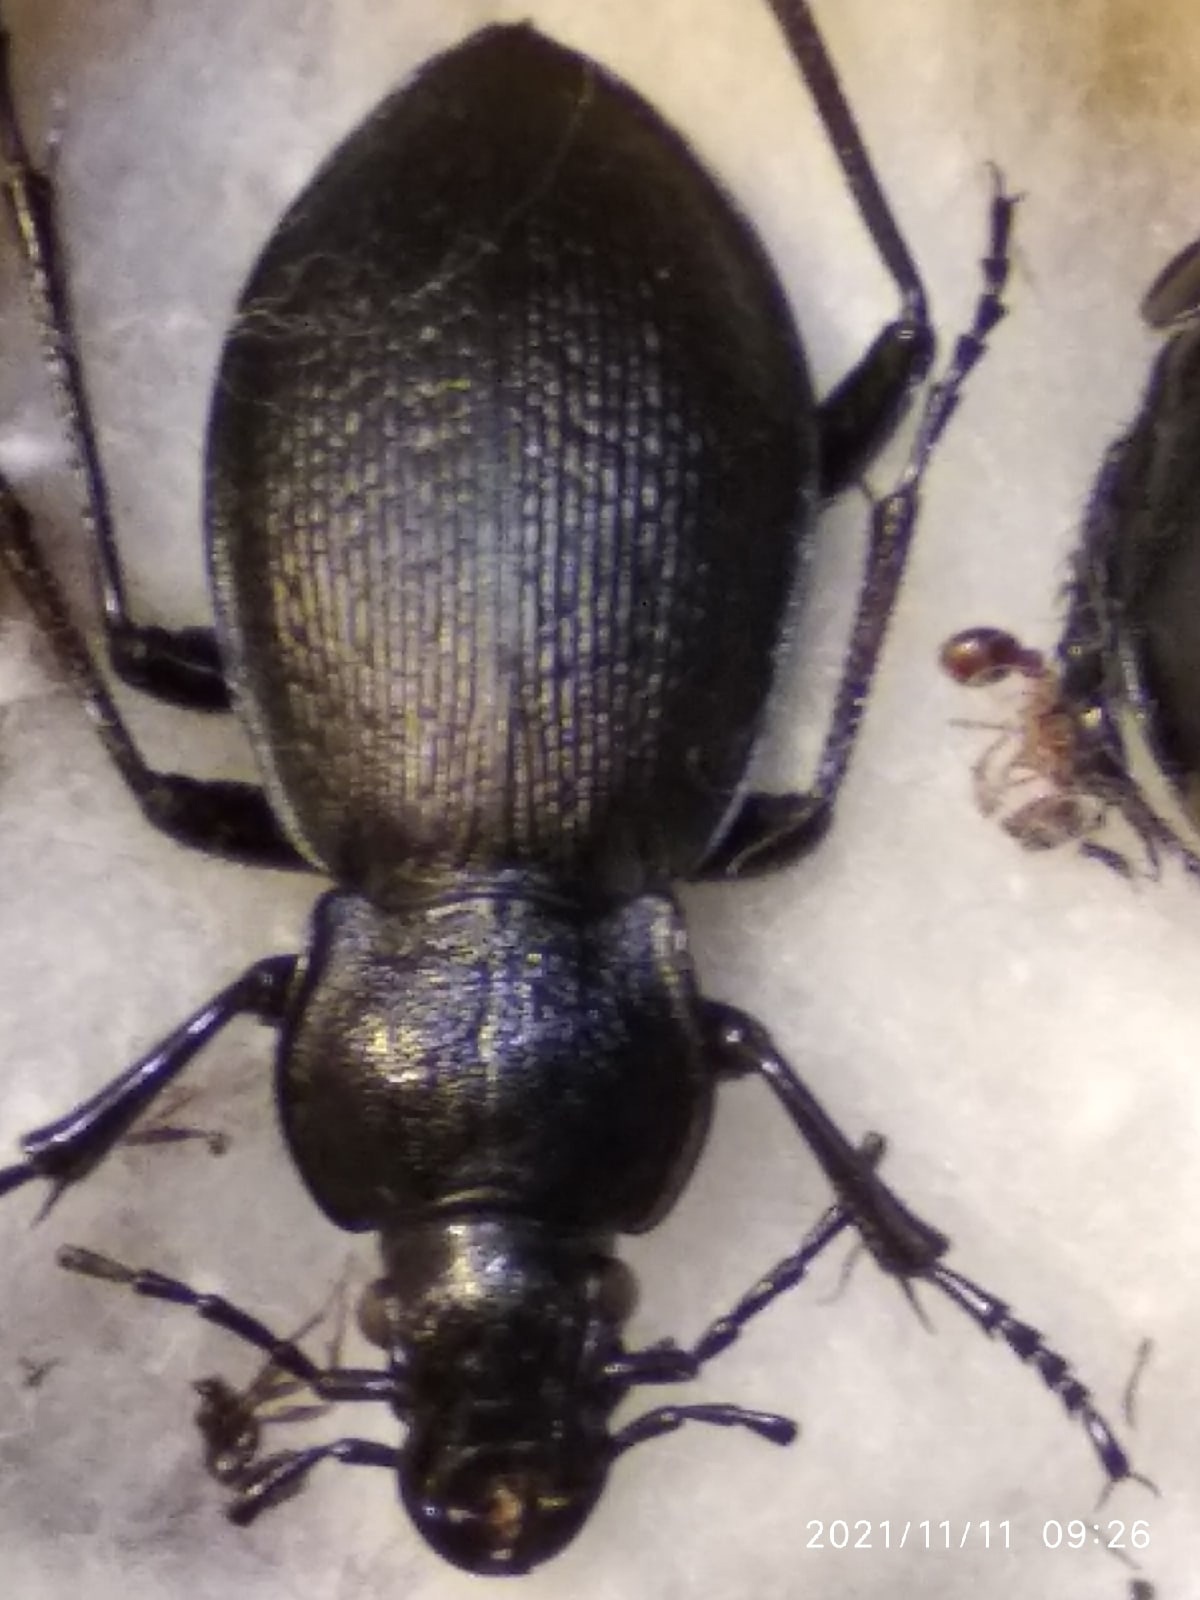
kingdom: Animalia
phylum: Arthropoda
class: Insecta
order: Coleoptera
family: Carabidae
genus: Carabus
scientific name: Carabus aeruginosus
